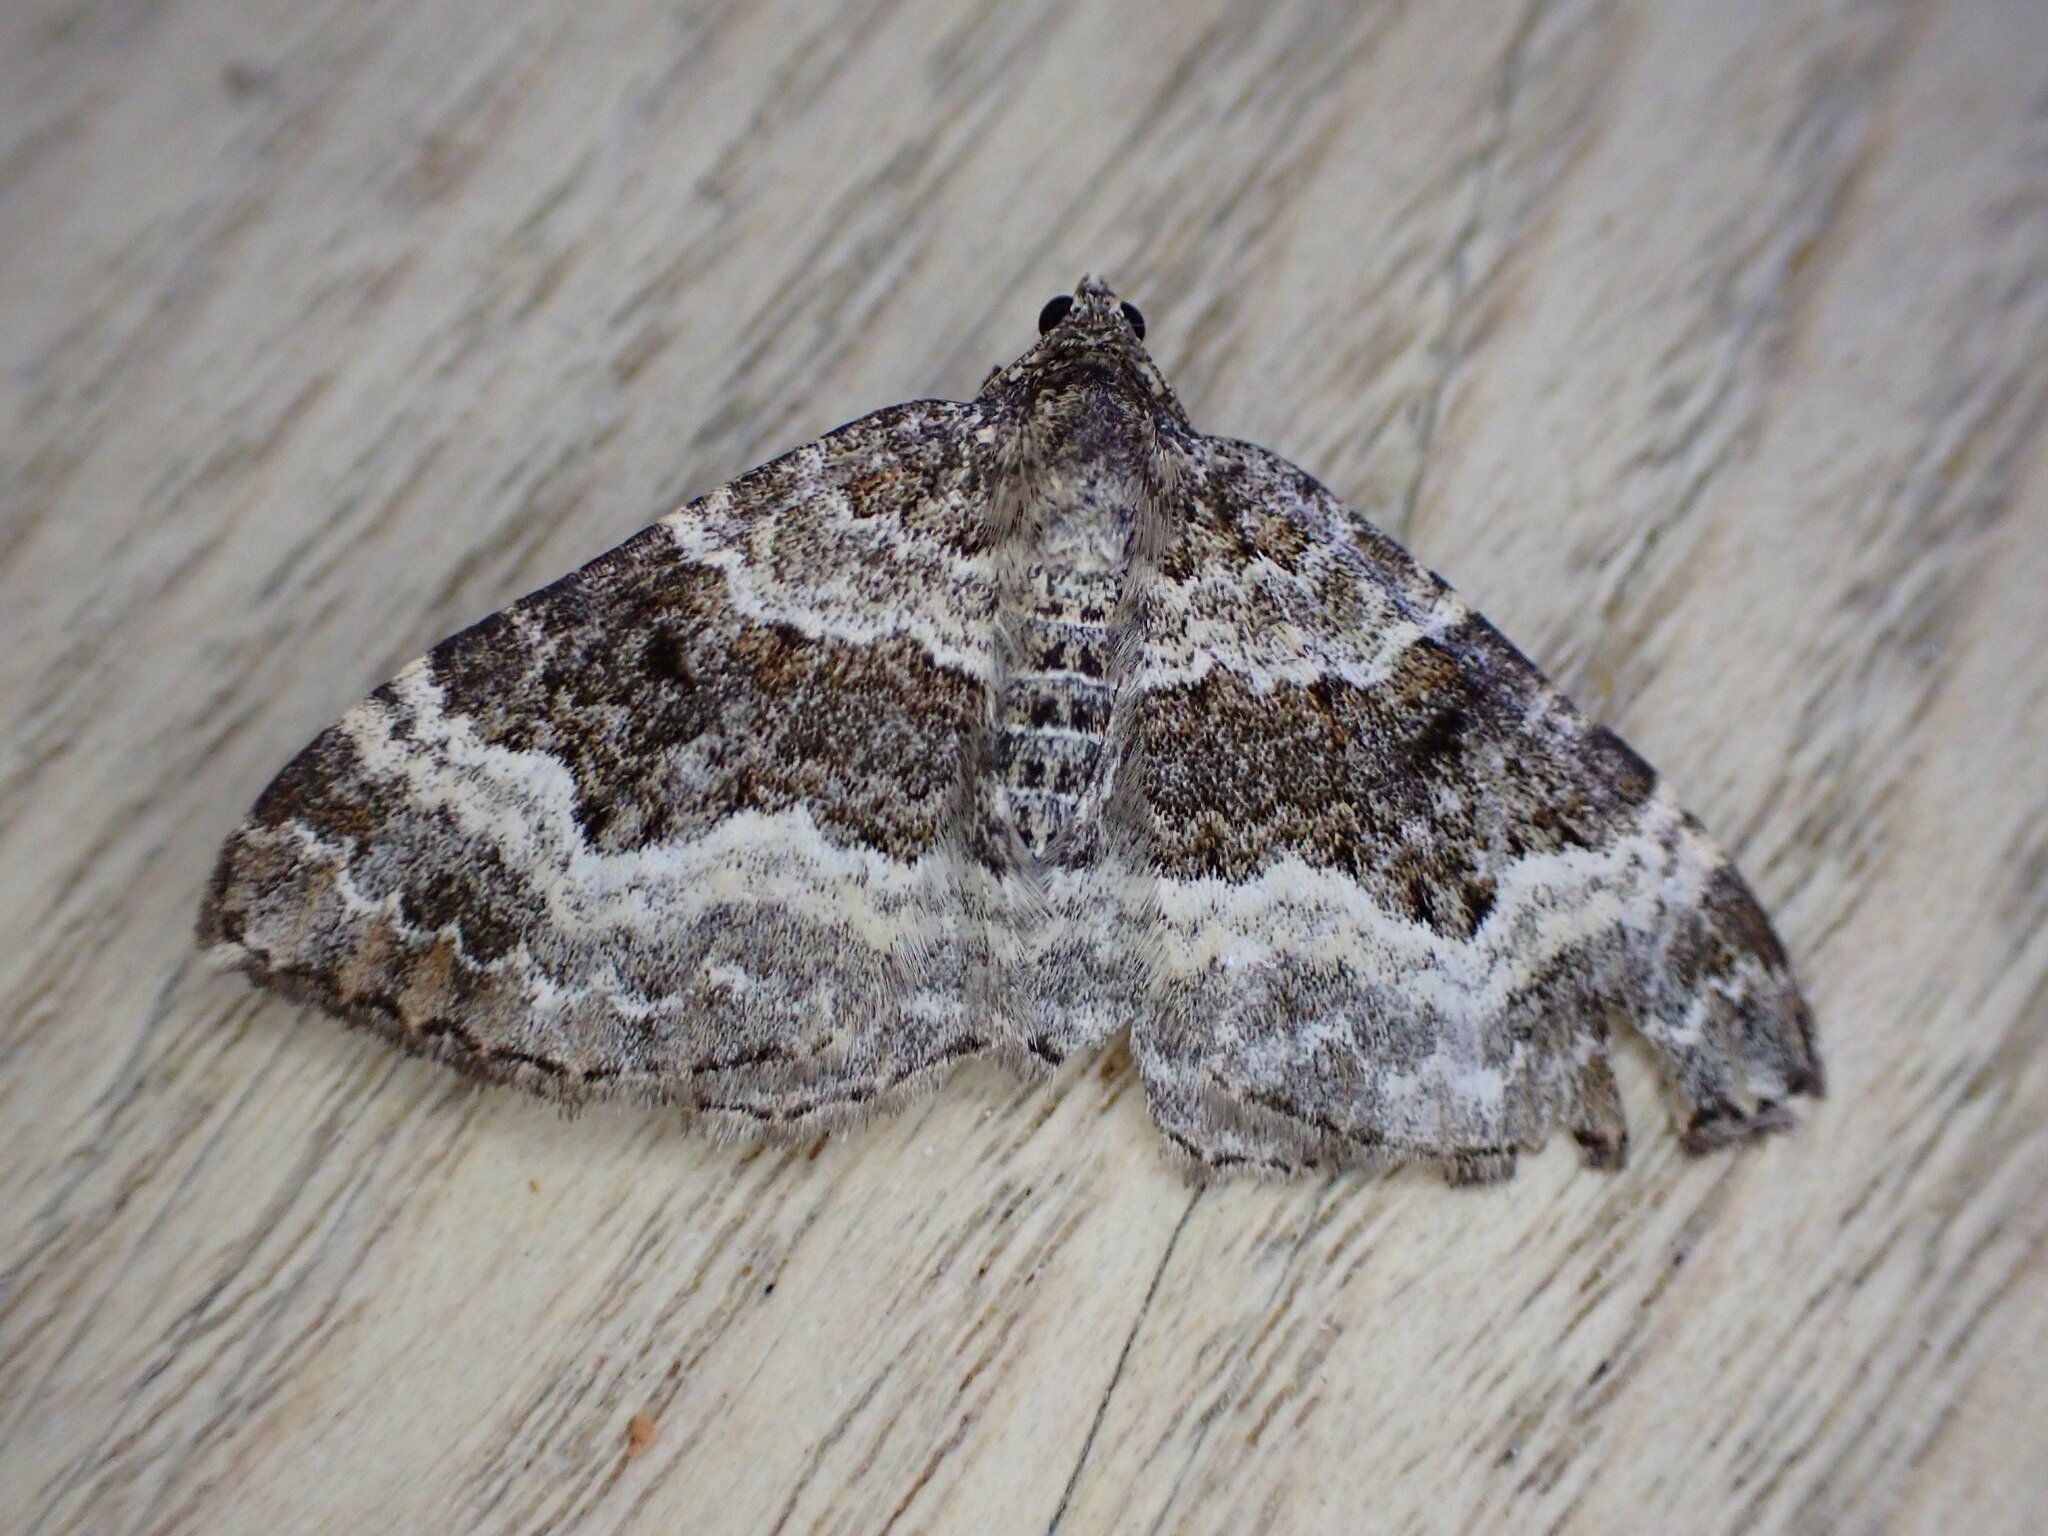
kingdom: Animalia
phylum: Arthropoda
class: Insecta
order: Lepidoptera
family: Geometridae
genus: Epirrhoe
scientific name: Epirrhoe alternata
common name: Common carpet
